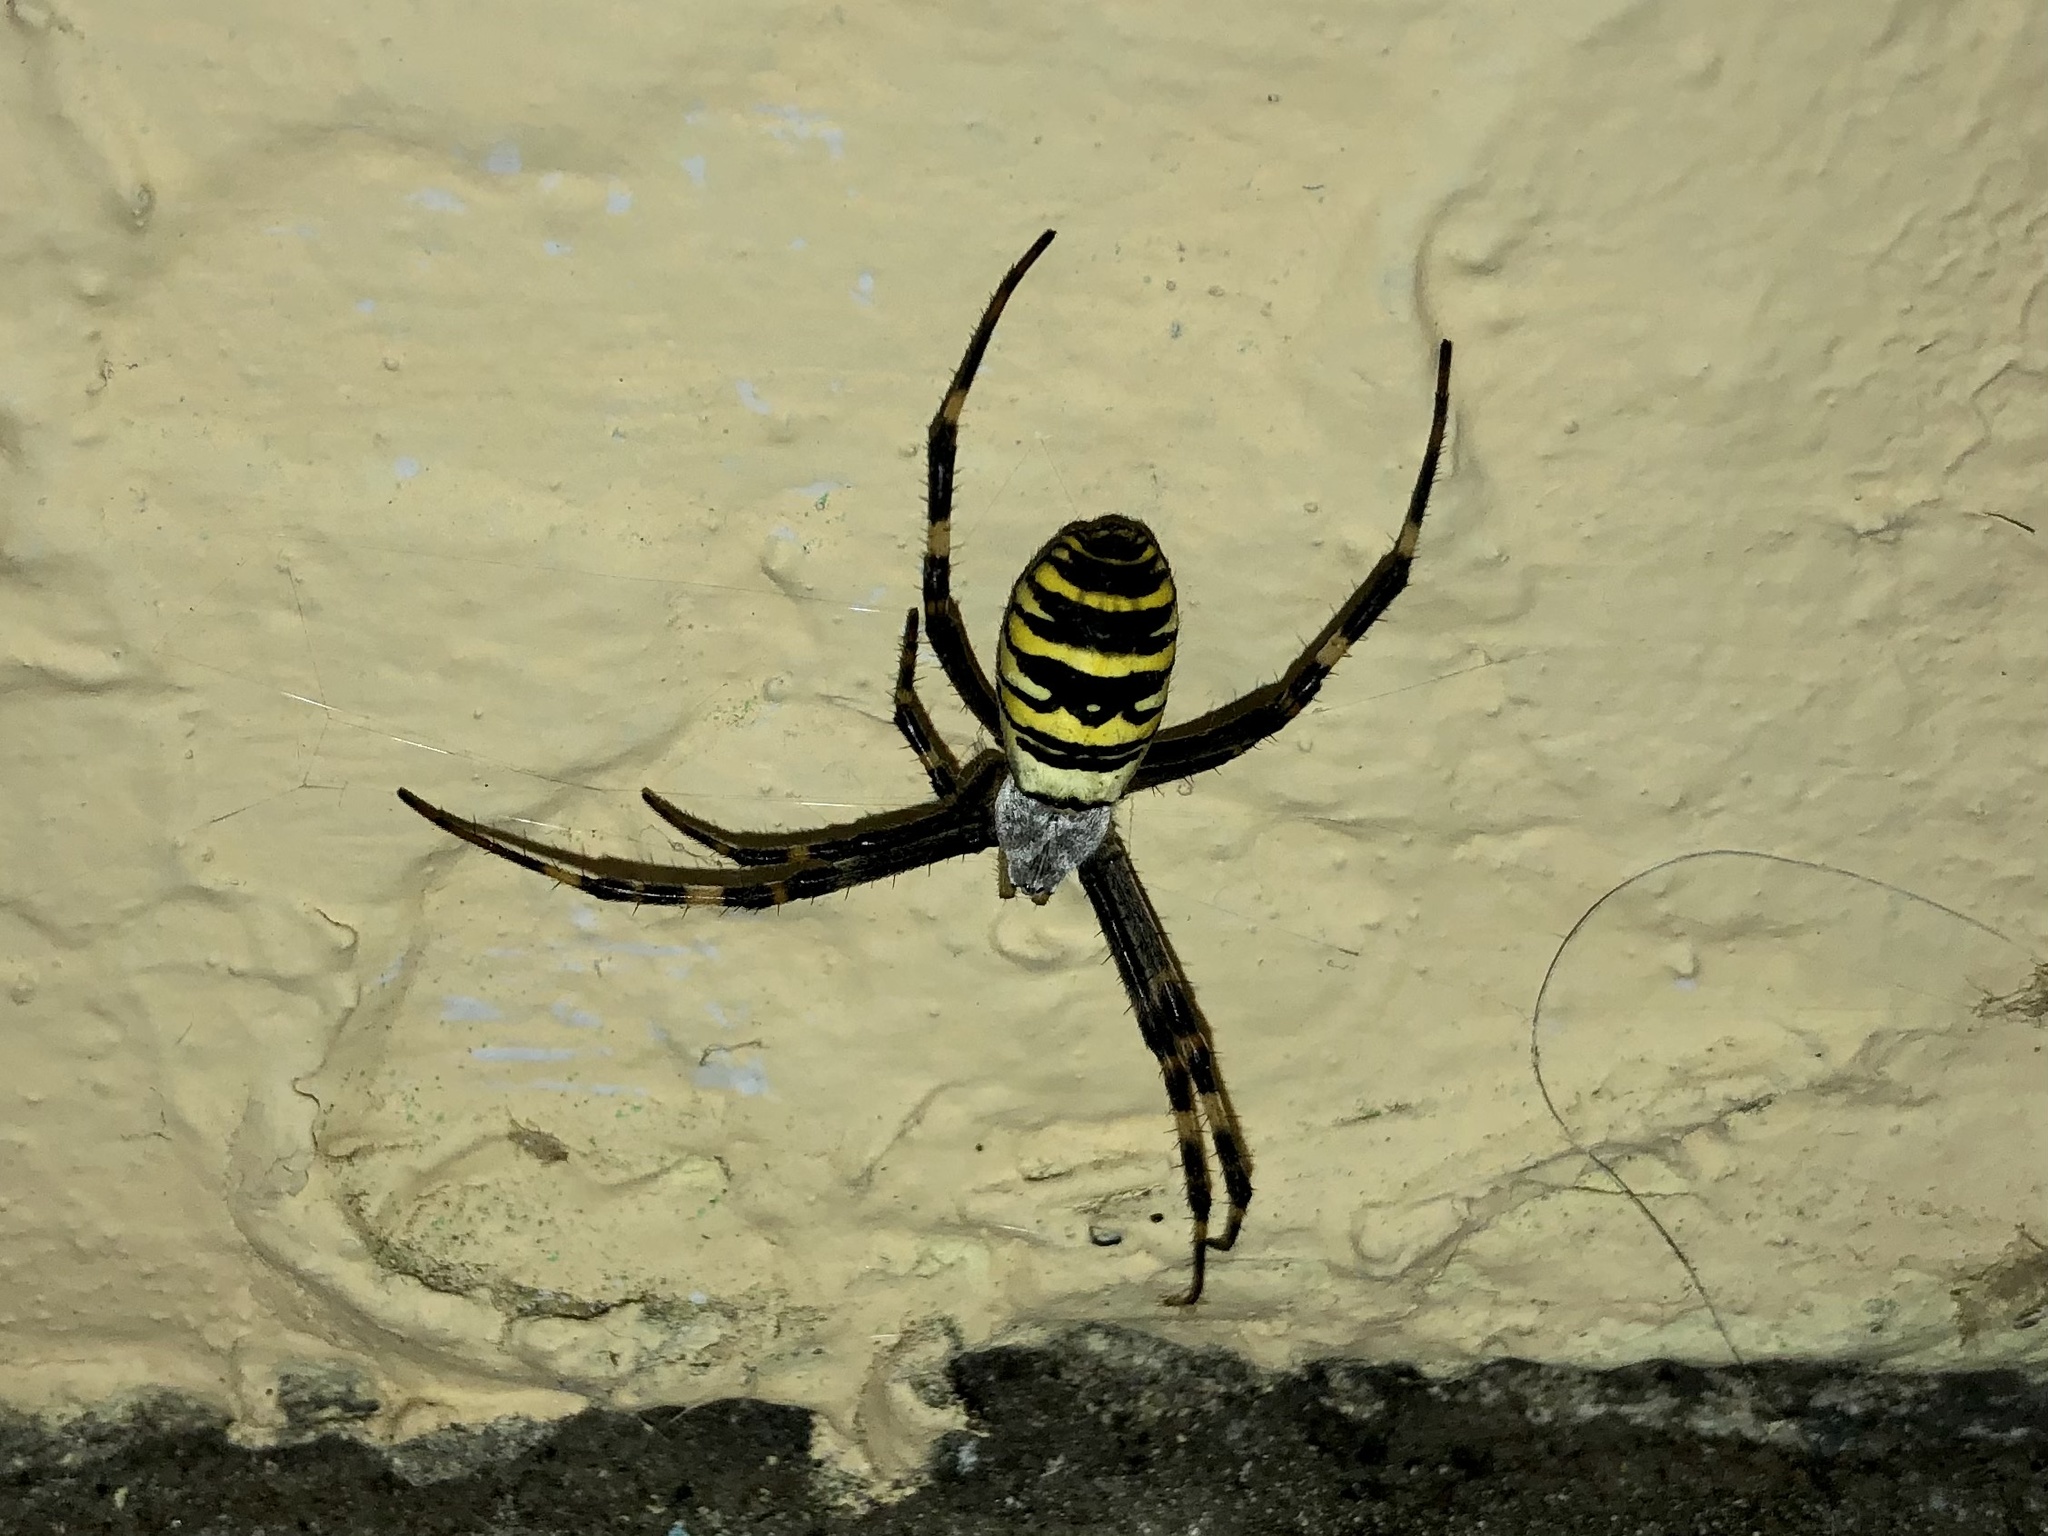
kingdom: Animalia
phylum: Arthropoda
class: Arachnida
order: Araneae
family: Araneidae
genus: Argiope
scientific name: Argiope bruennichi
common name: Wasp spider
